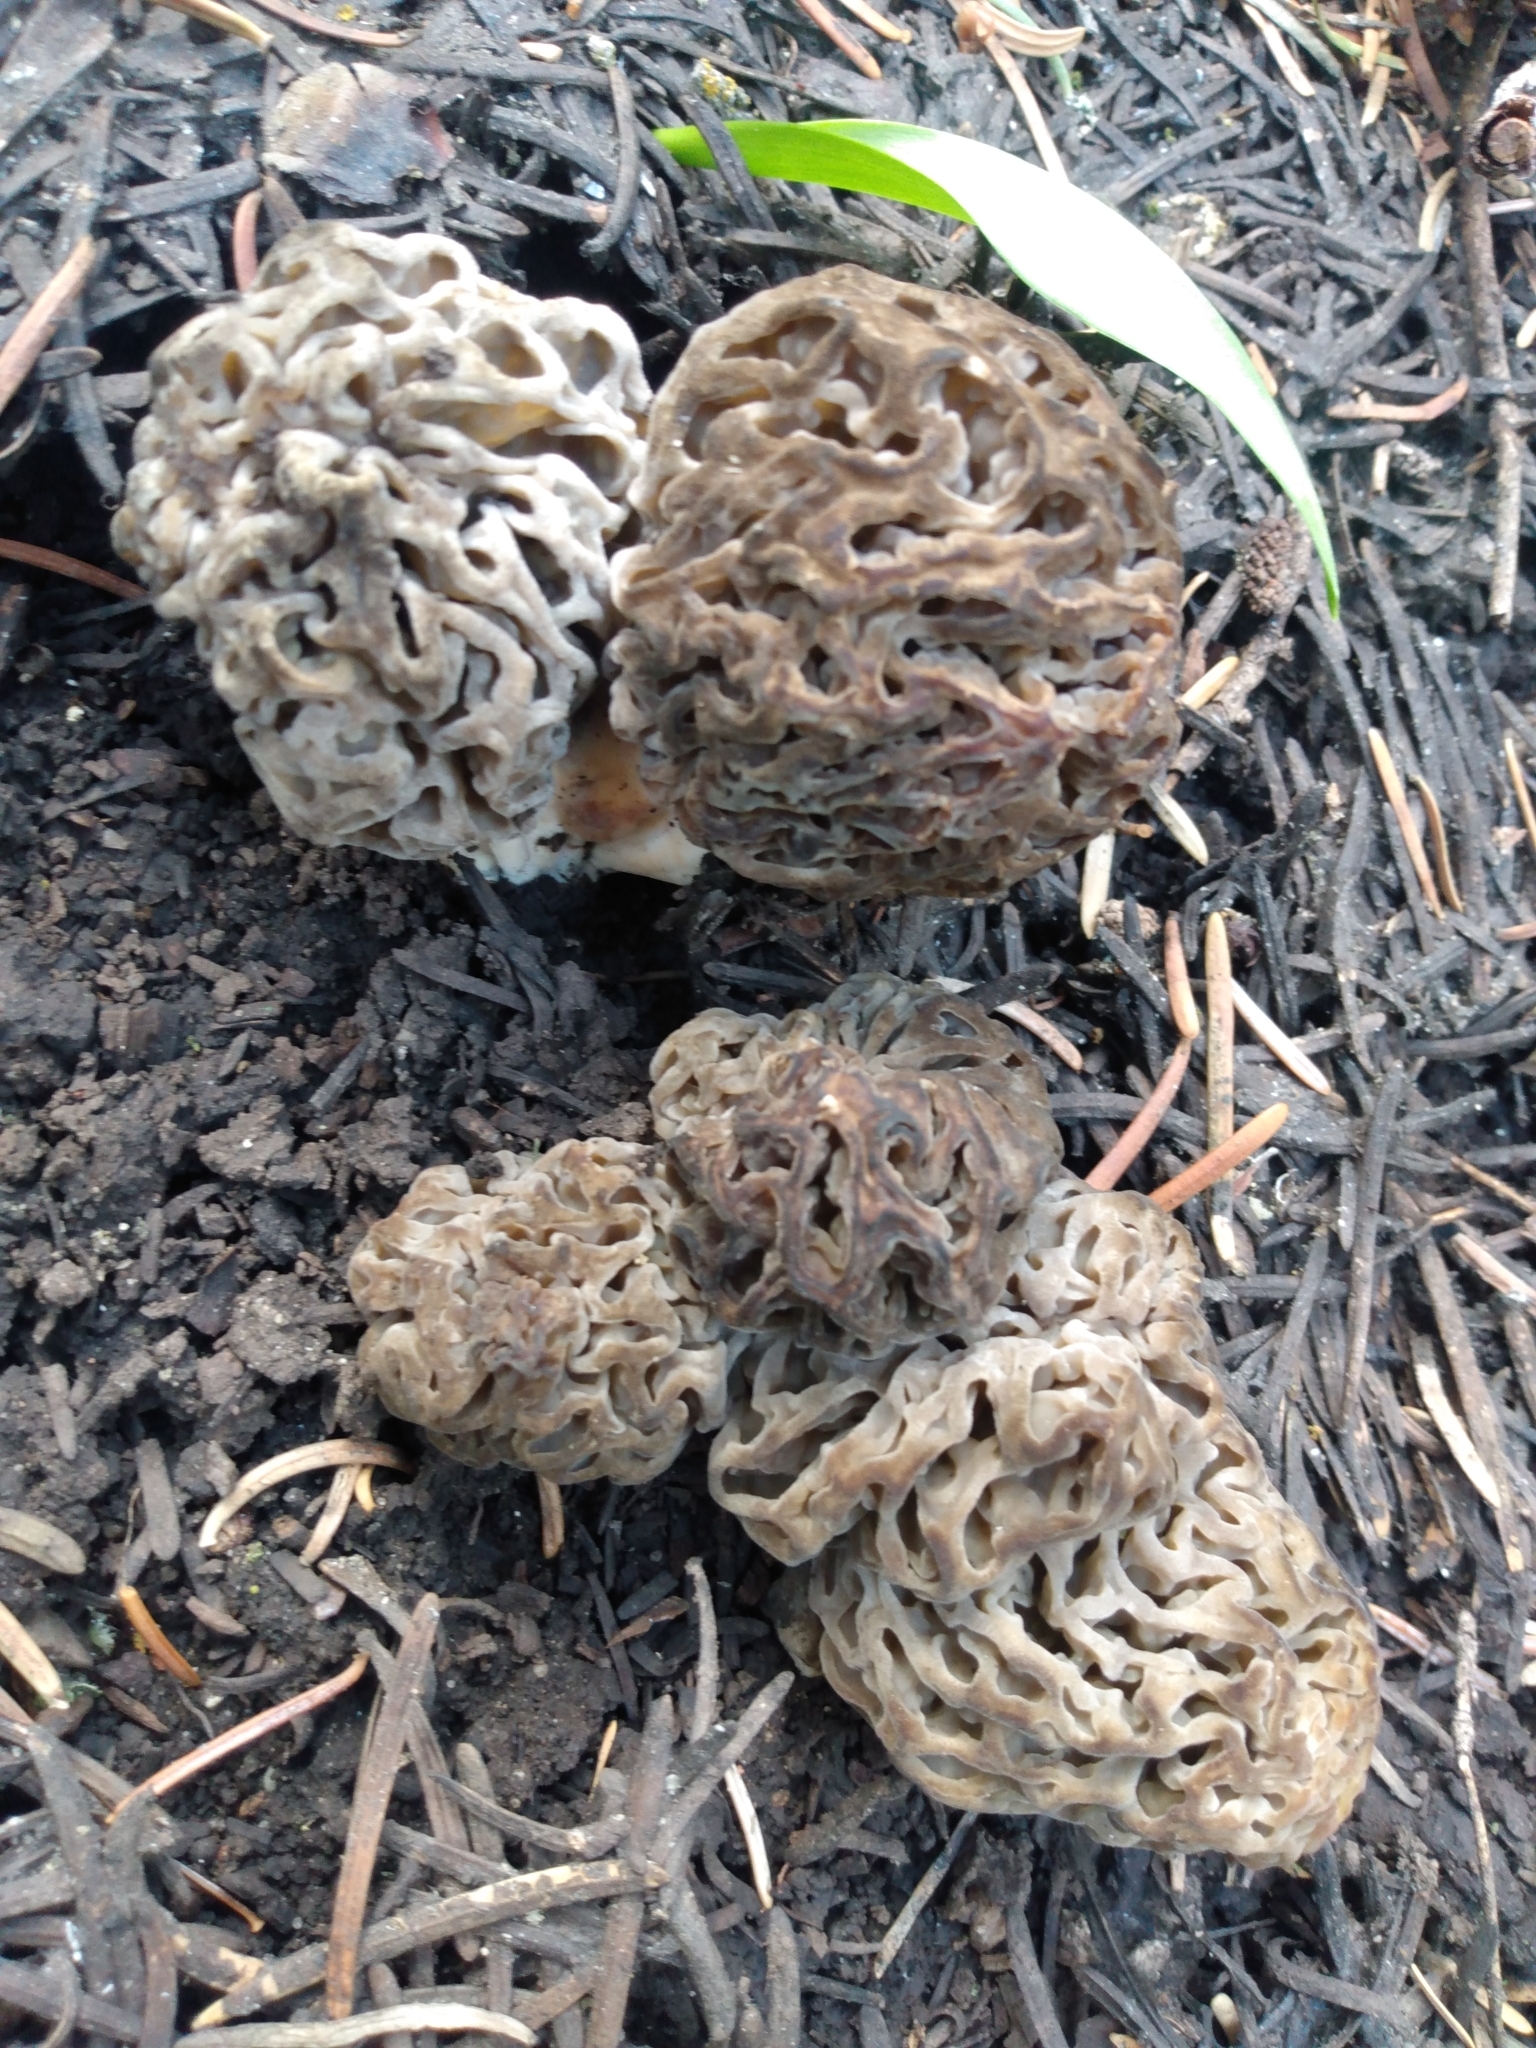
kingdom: Fungi
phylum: Ascomycota
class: Pezizomycetes
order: Pezizales
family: Morchellaceae
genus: Morchella
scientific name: Morchella snyderi
